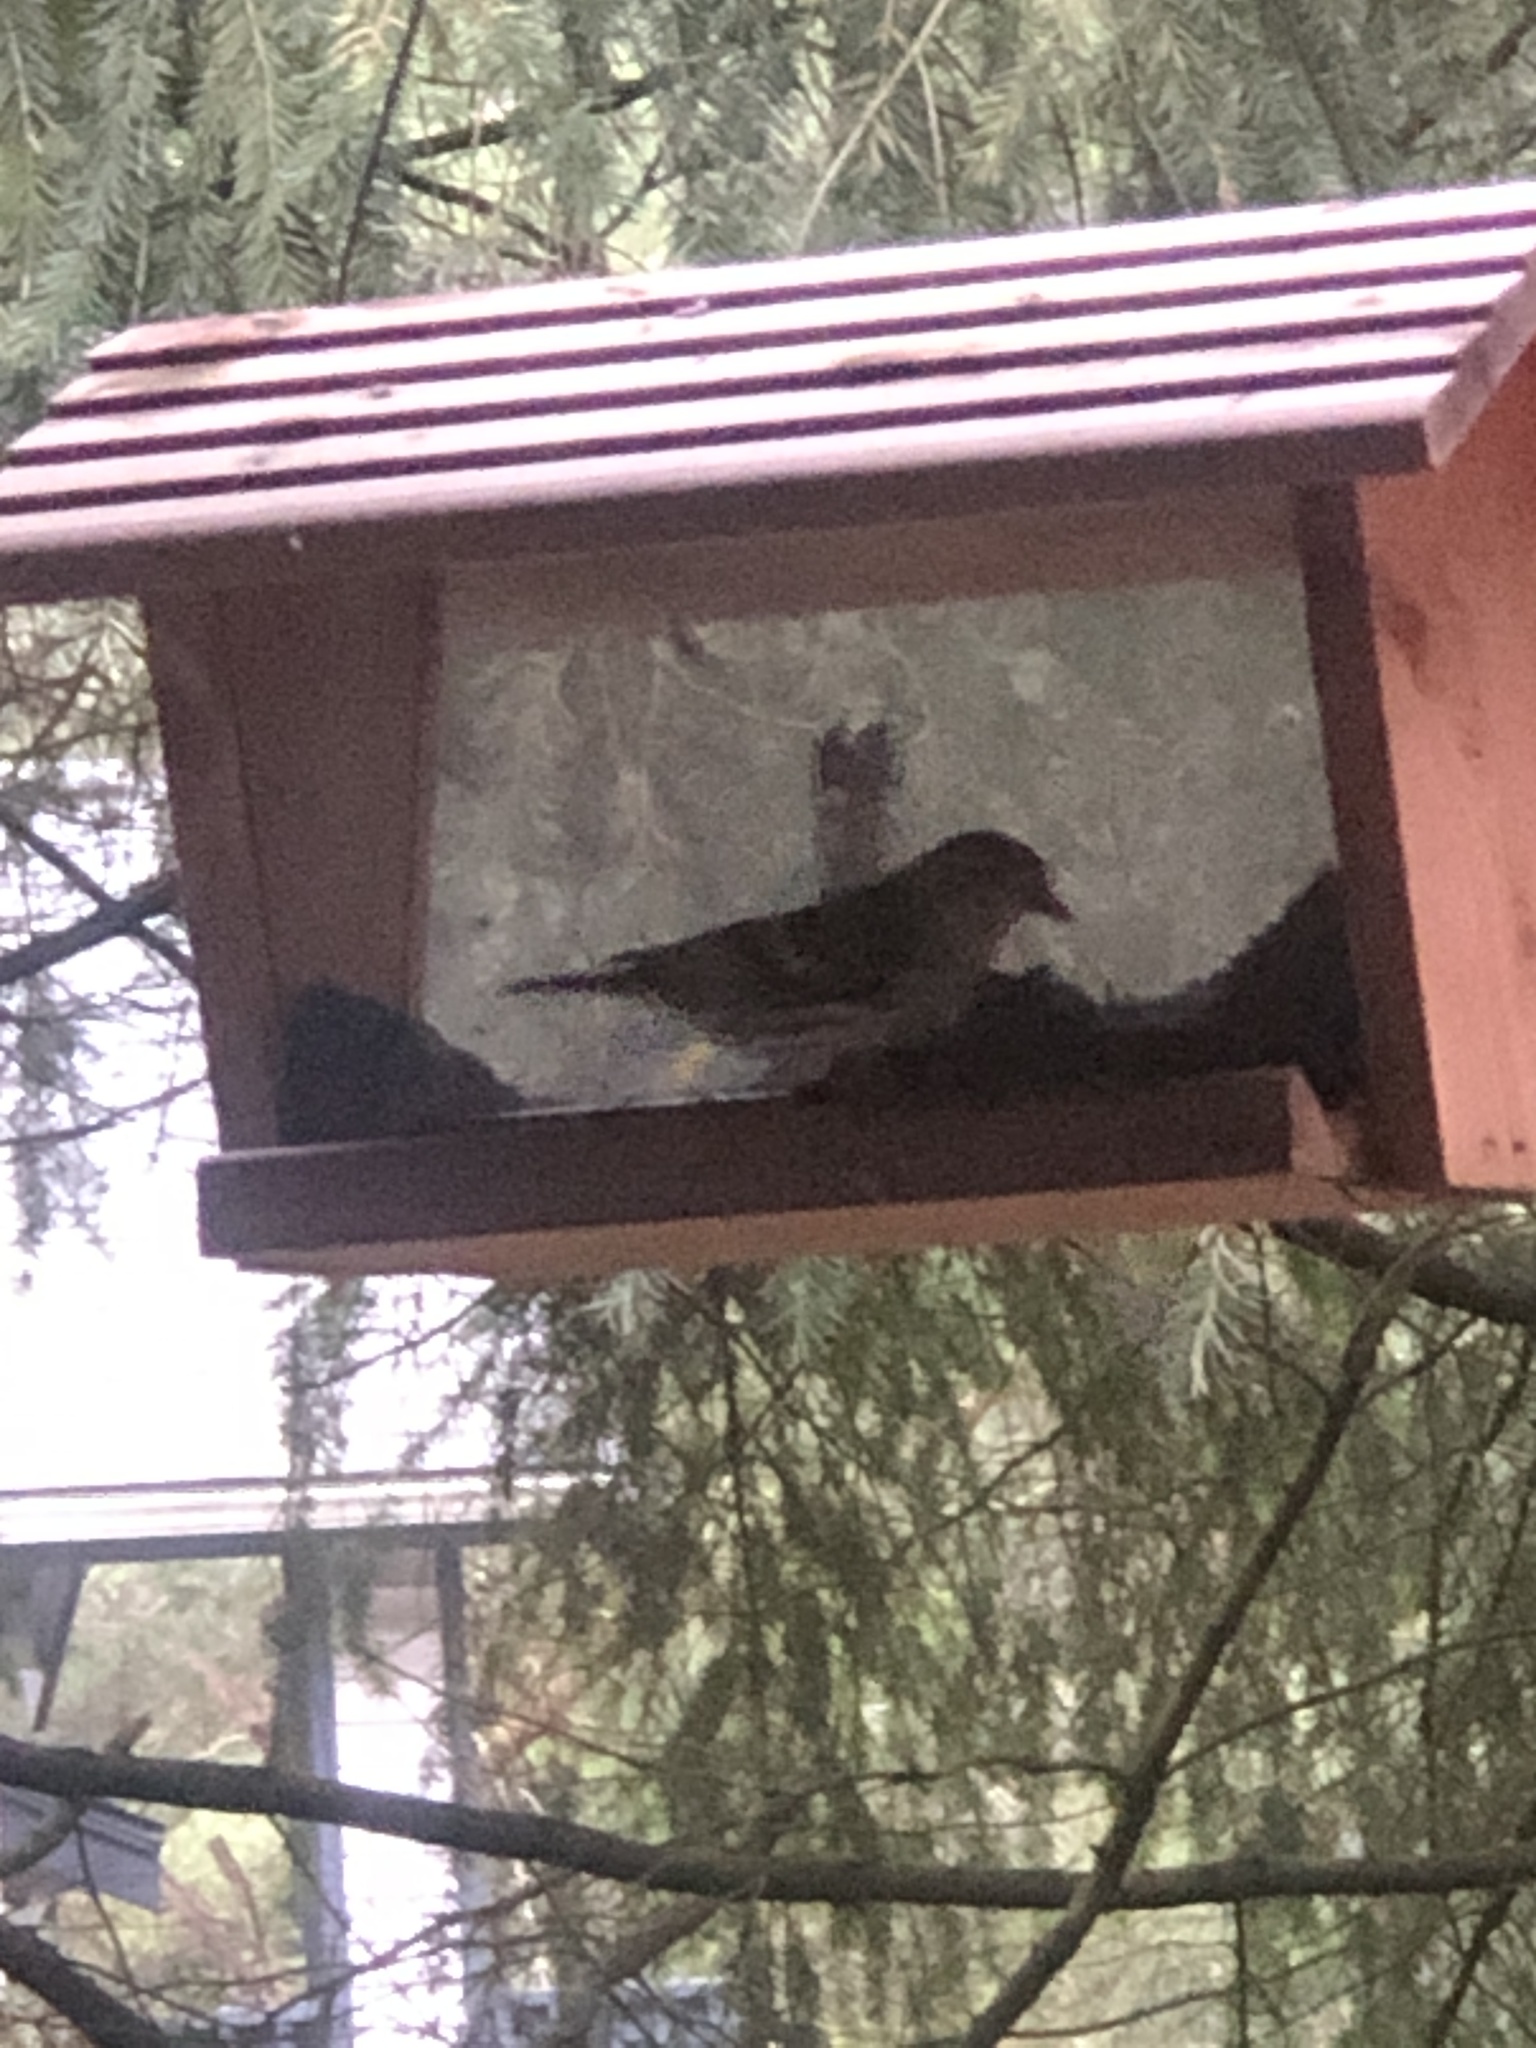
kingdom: Animalia
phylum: Chordata
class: Aves
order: Passeriformes
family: Fringillidae
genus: Spinus
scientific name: Spinus pinus
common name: Pine siskin
